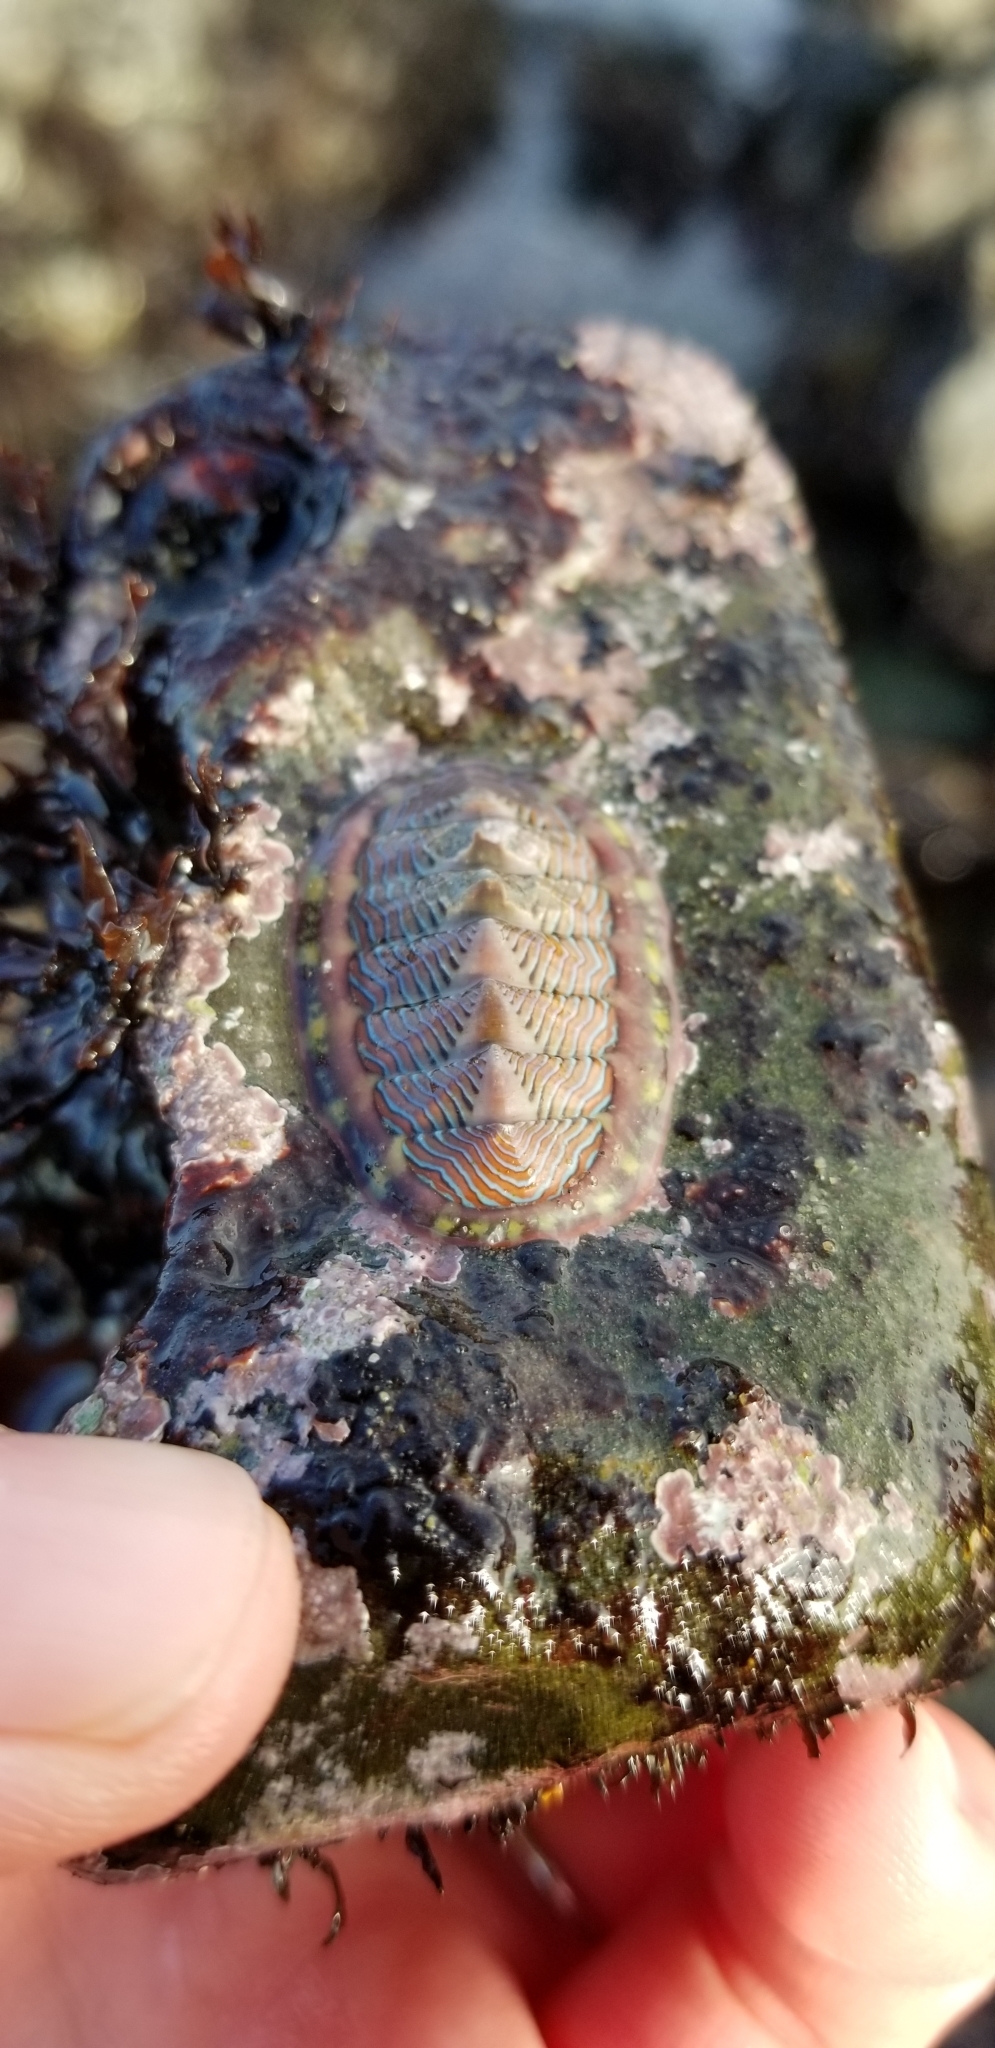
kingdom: Animalia
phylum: Mollusca
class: Polyplacophora
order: Chitonida
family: Tonicellidae
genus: Tonicella
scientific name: Tonicella lineata
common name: Lined chiton
